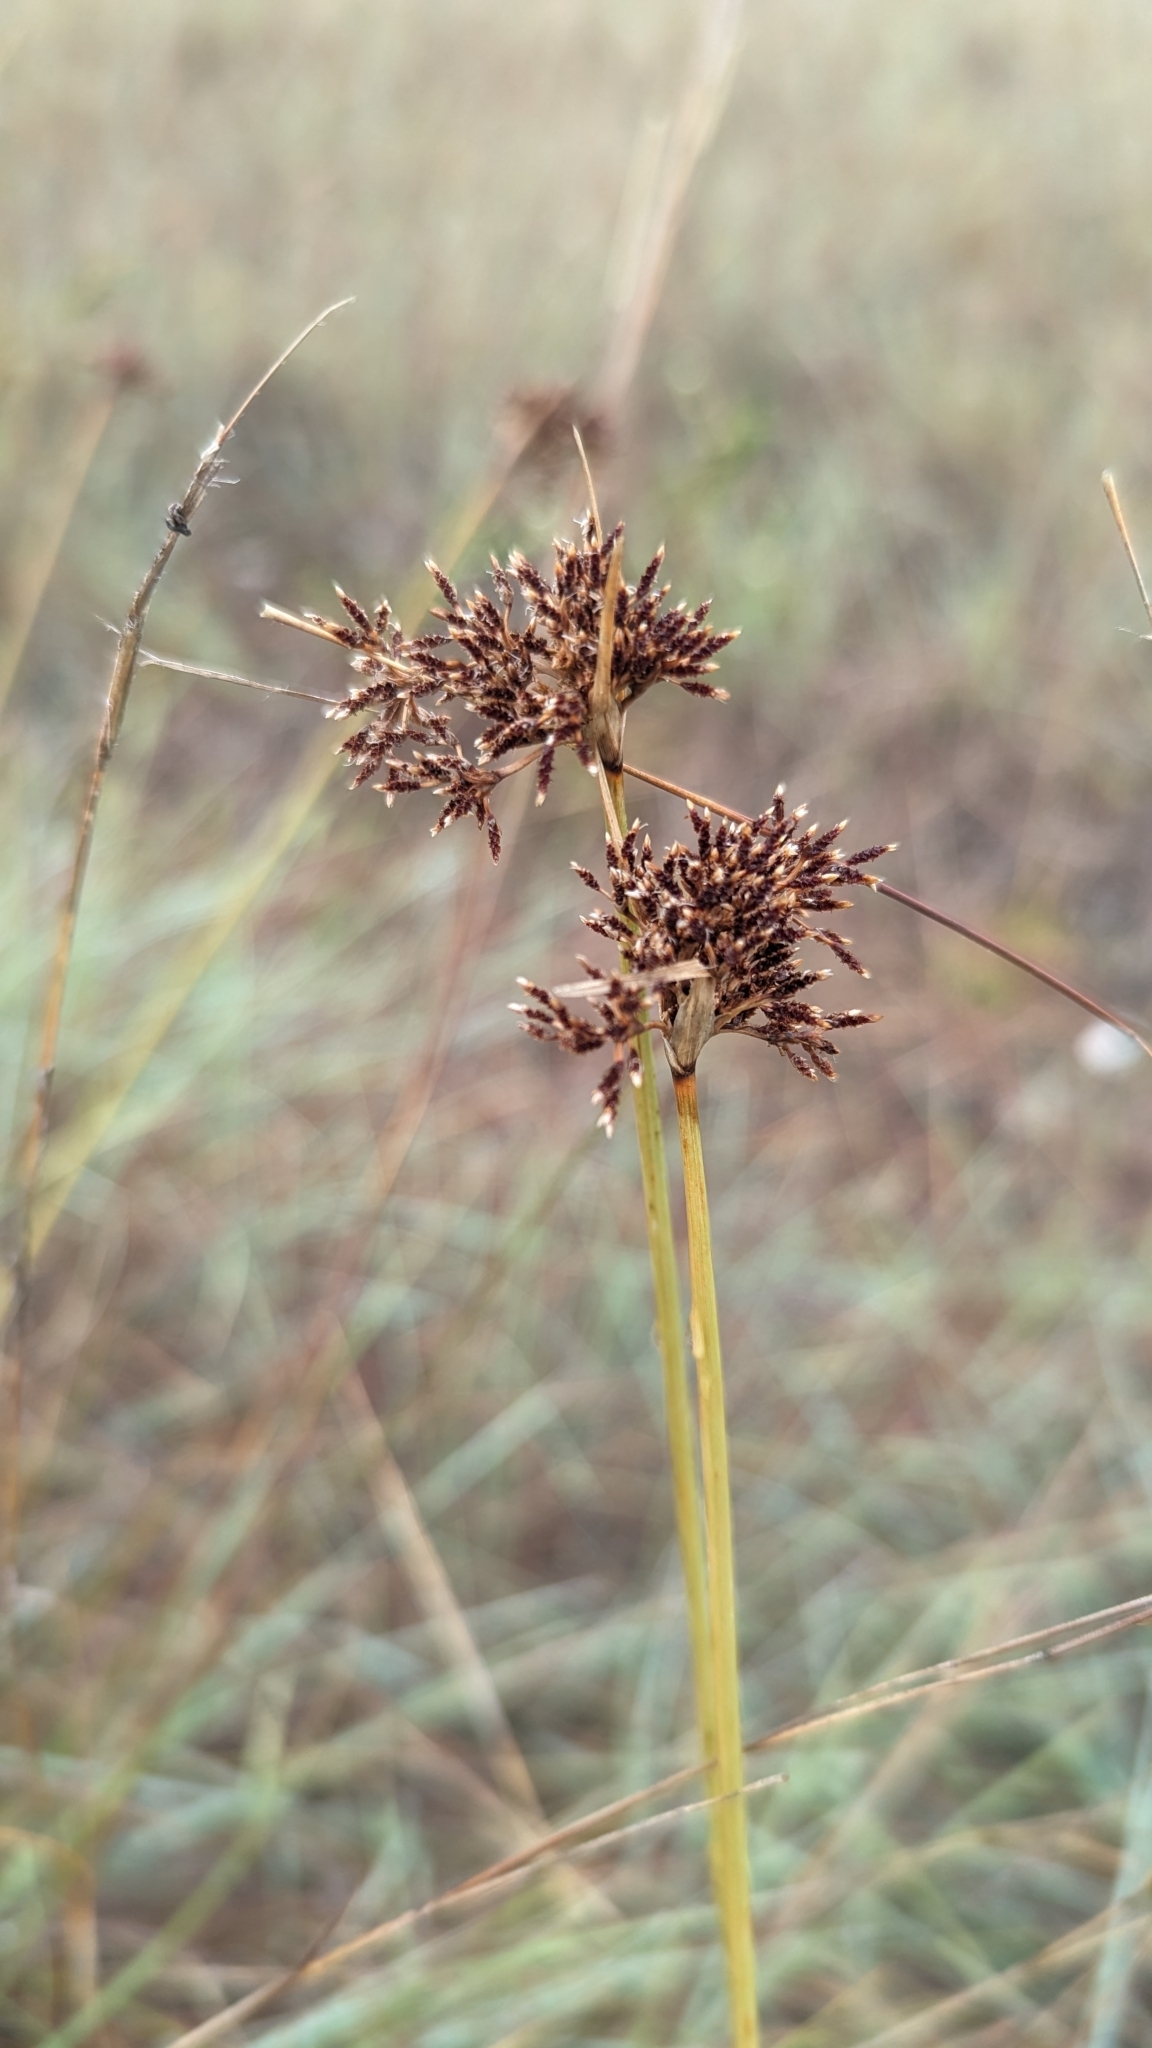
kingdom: Plantae
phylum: Tracheophyta
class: Liliopsida
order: Poales
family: Cyperaceae
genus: Fimbristylis
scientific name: Fimbristylis cymosa
